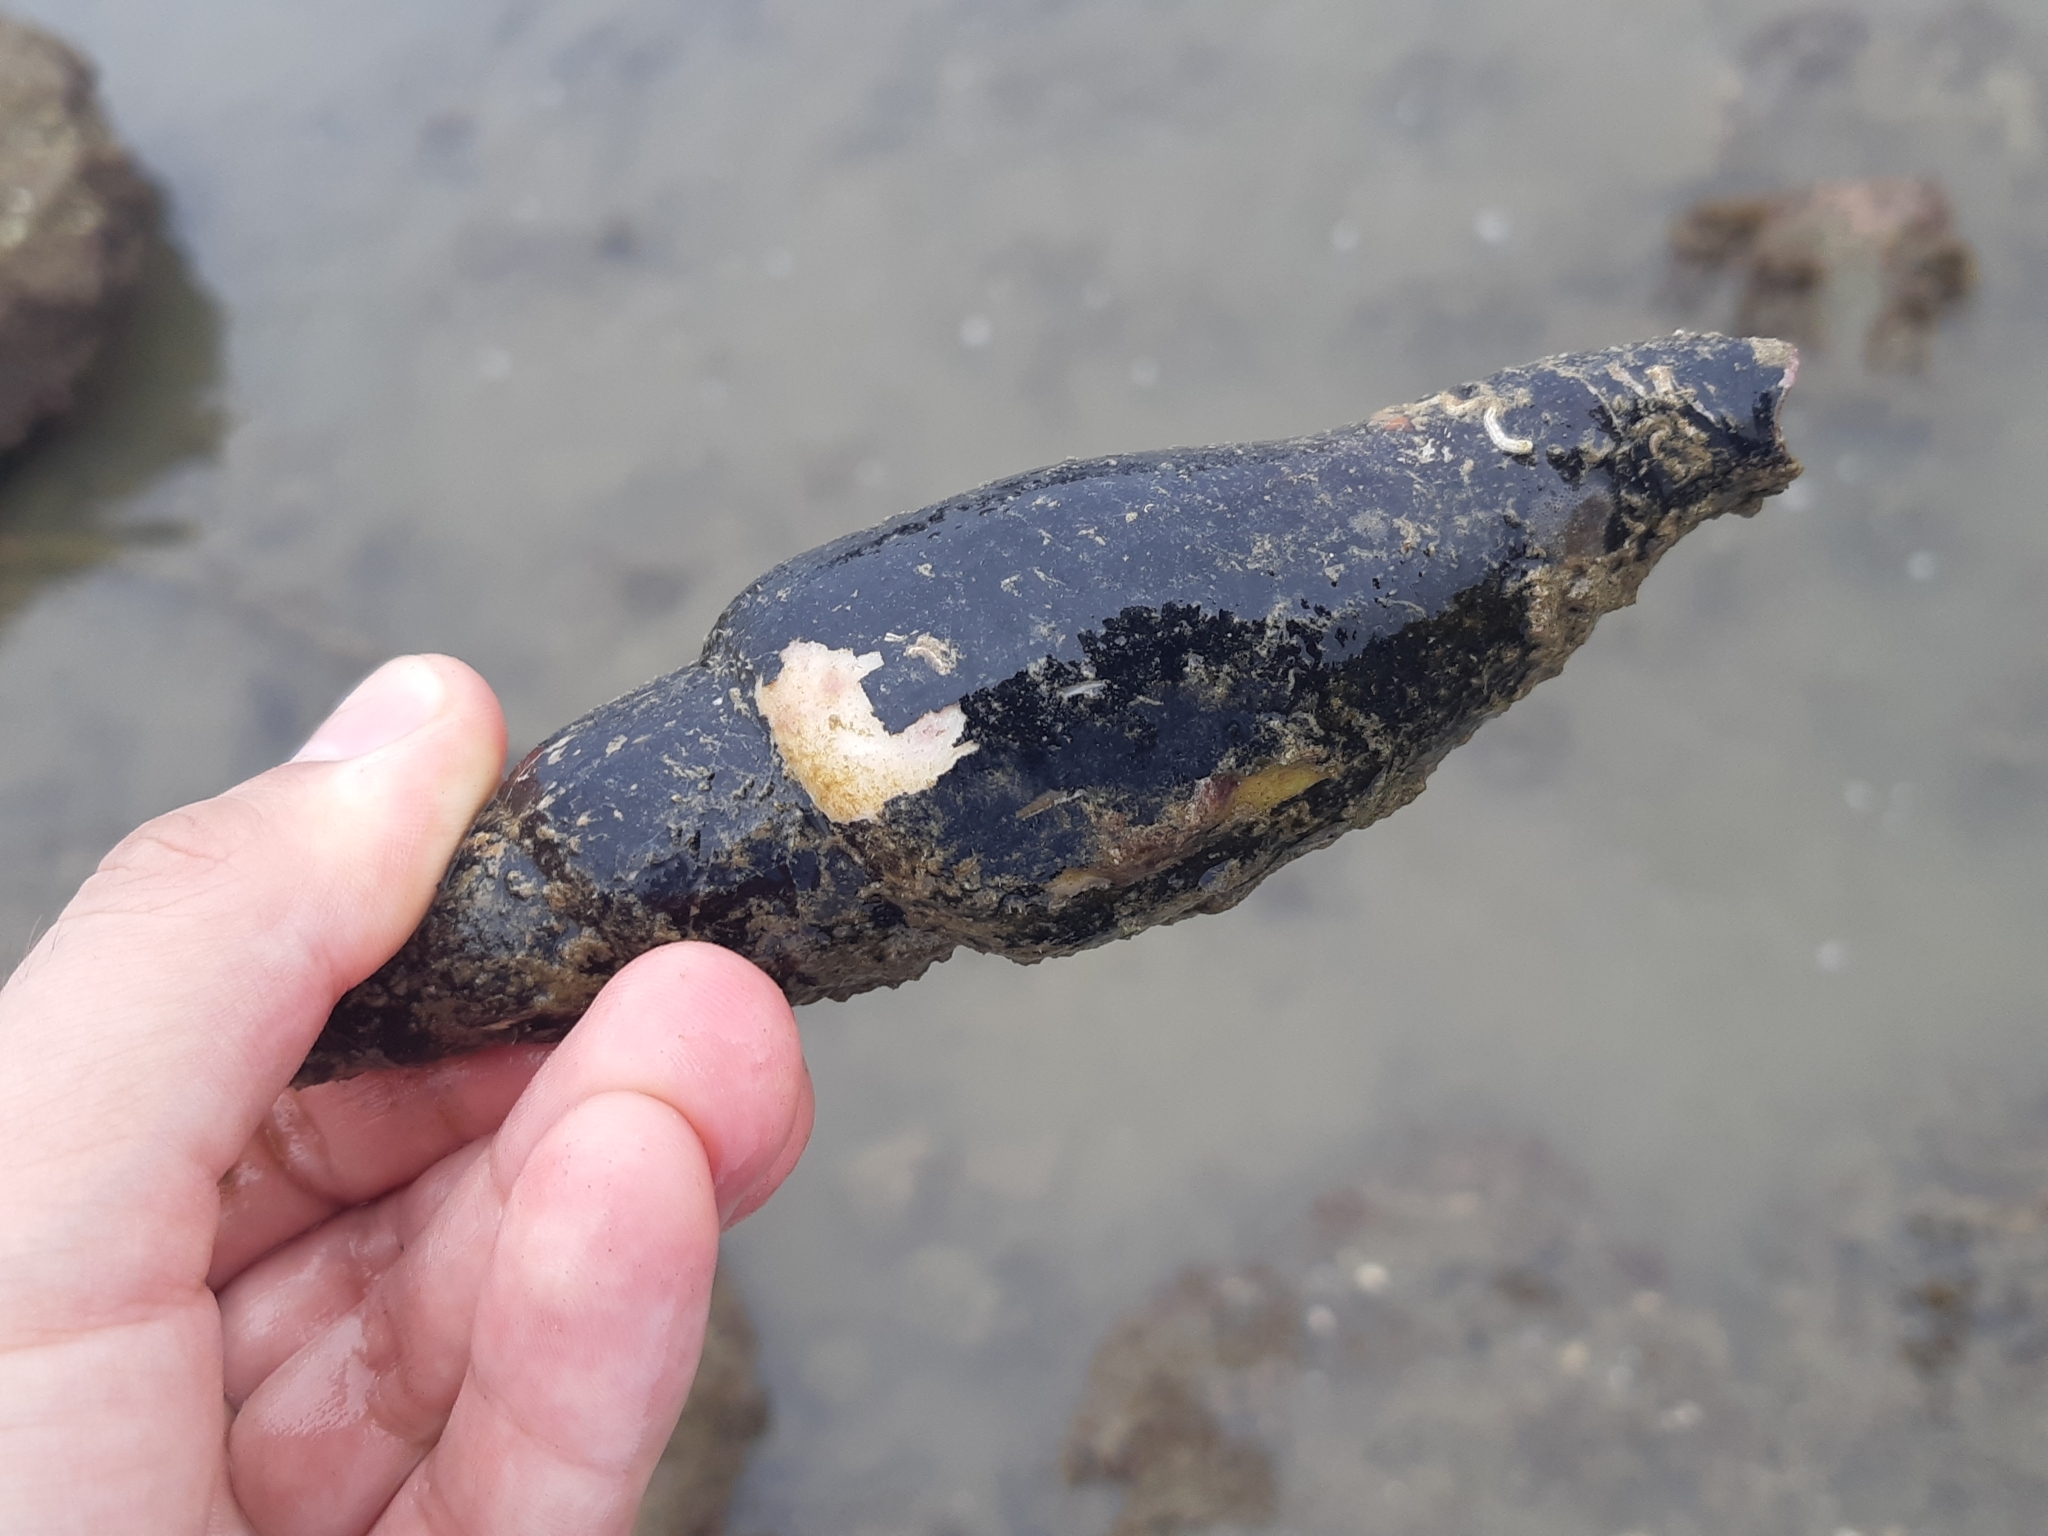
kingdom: Animalia
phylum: Mollusca
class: Gastropoda
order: Neogastropoda
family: Mitridae
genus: Isara
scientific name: Isara swainsonii
